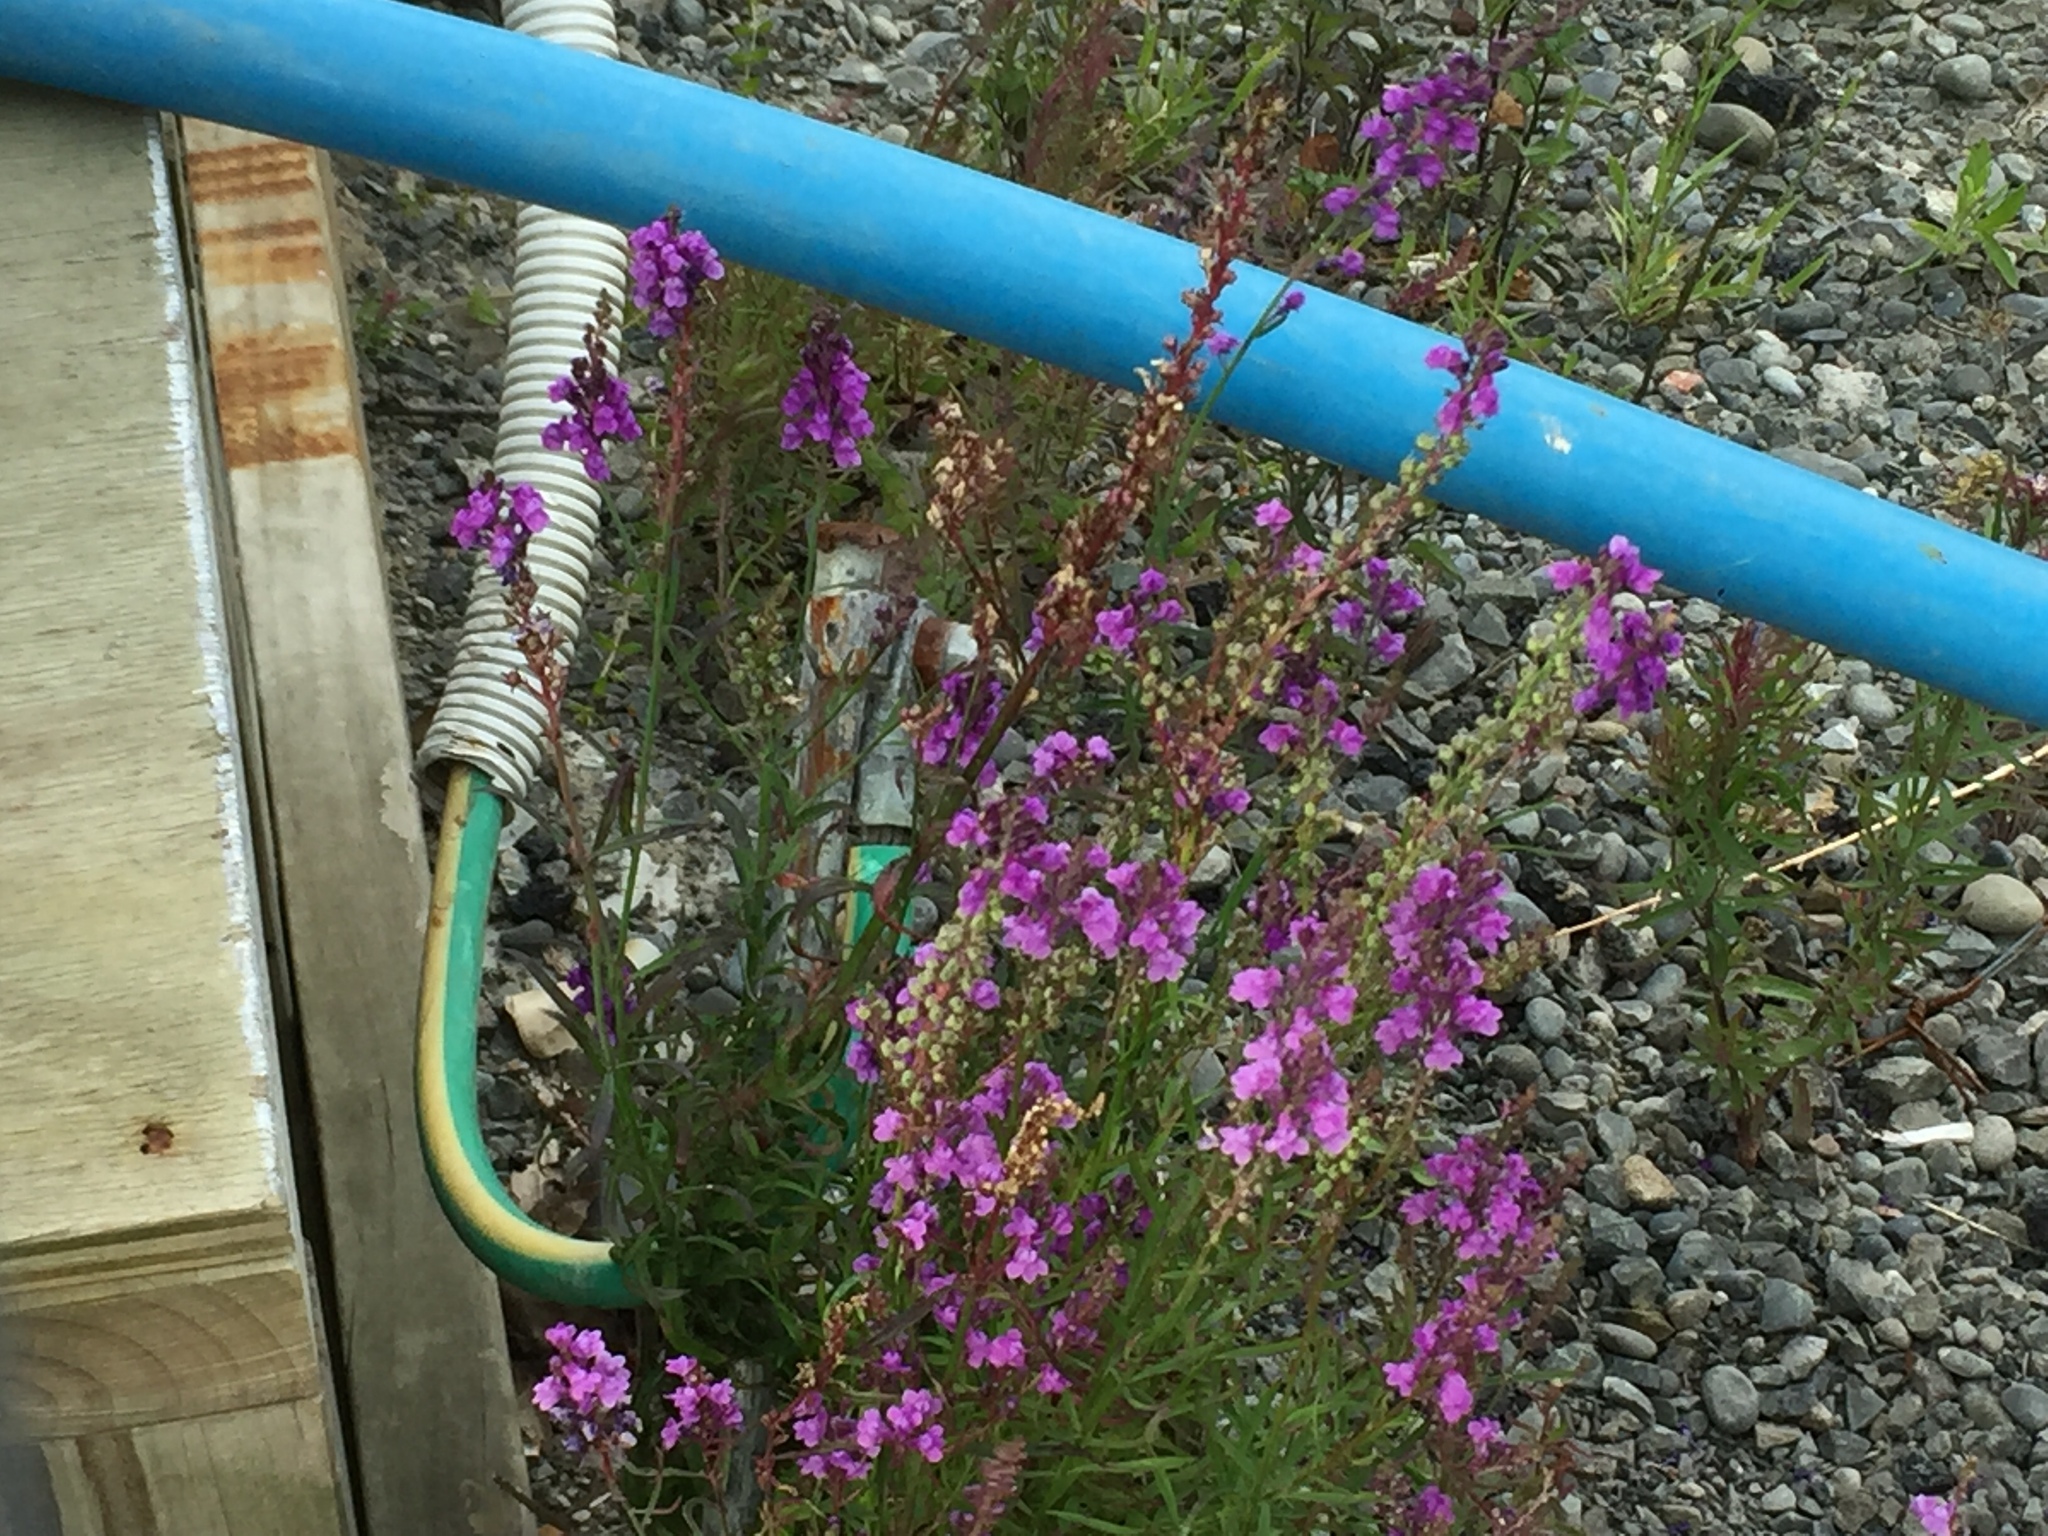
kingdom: Plantae
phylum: Tracheophyta
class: Magnoliopsida
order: Lamiales
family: Plantaginaceae
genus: Linaria
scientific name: Linaria purpurea
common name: Purple toadflax
